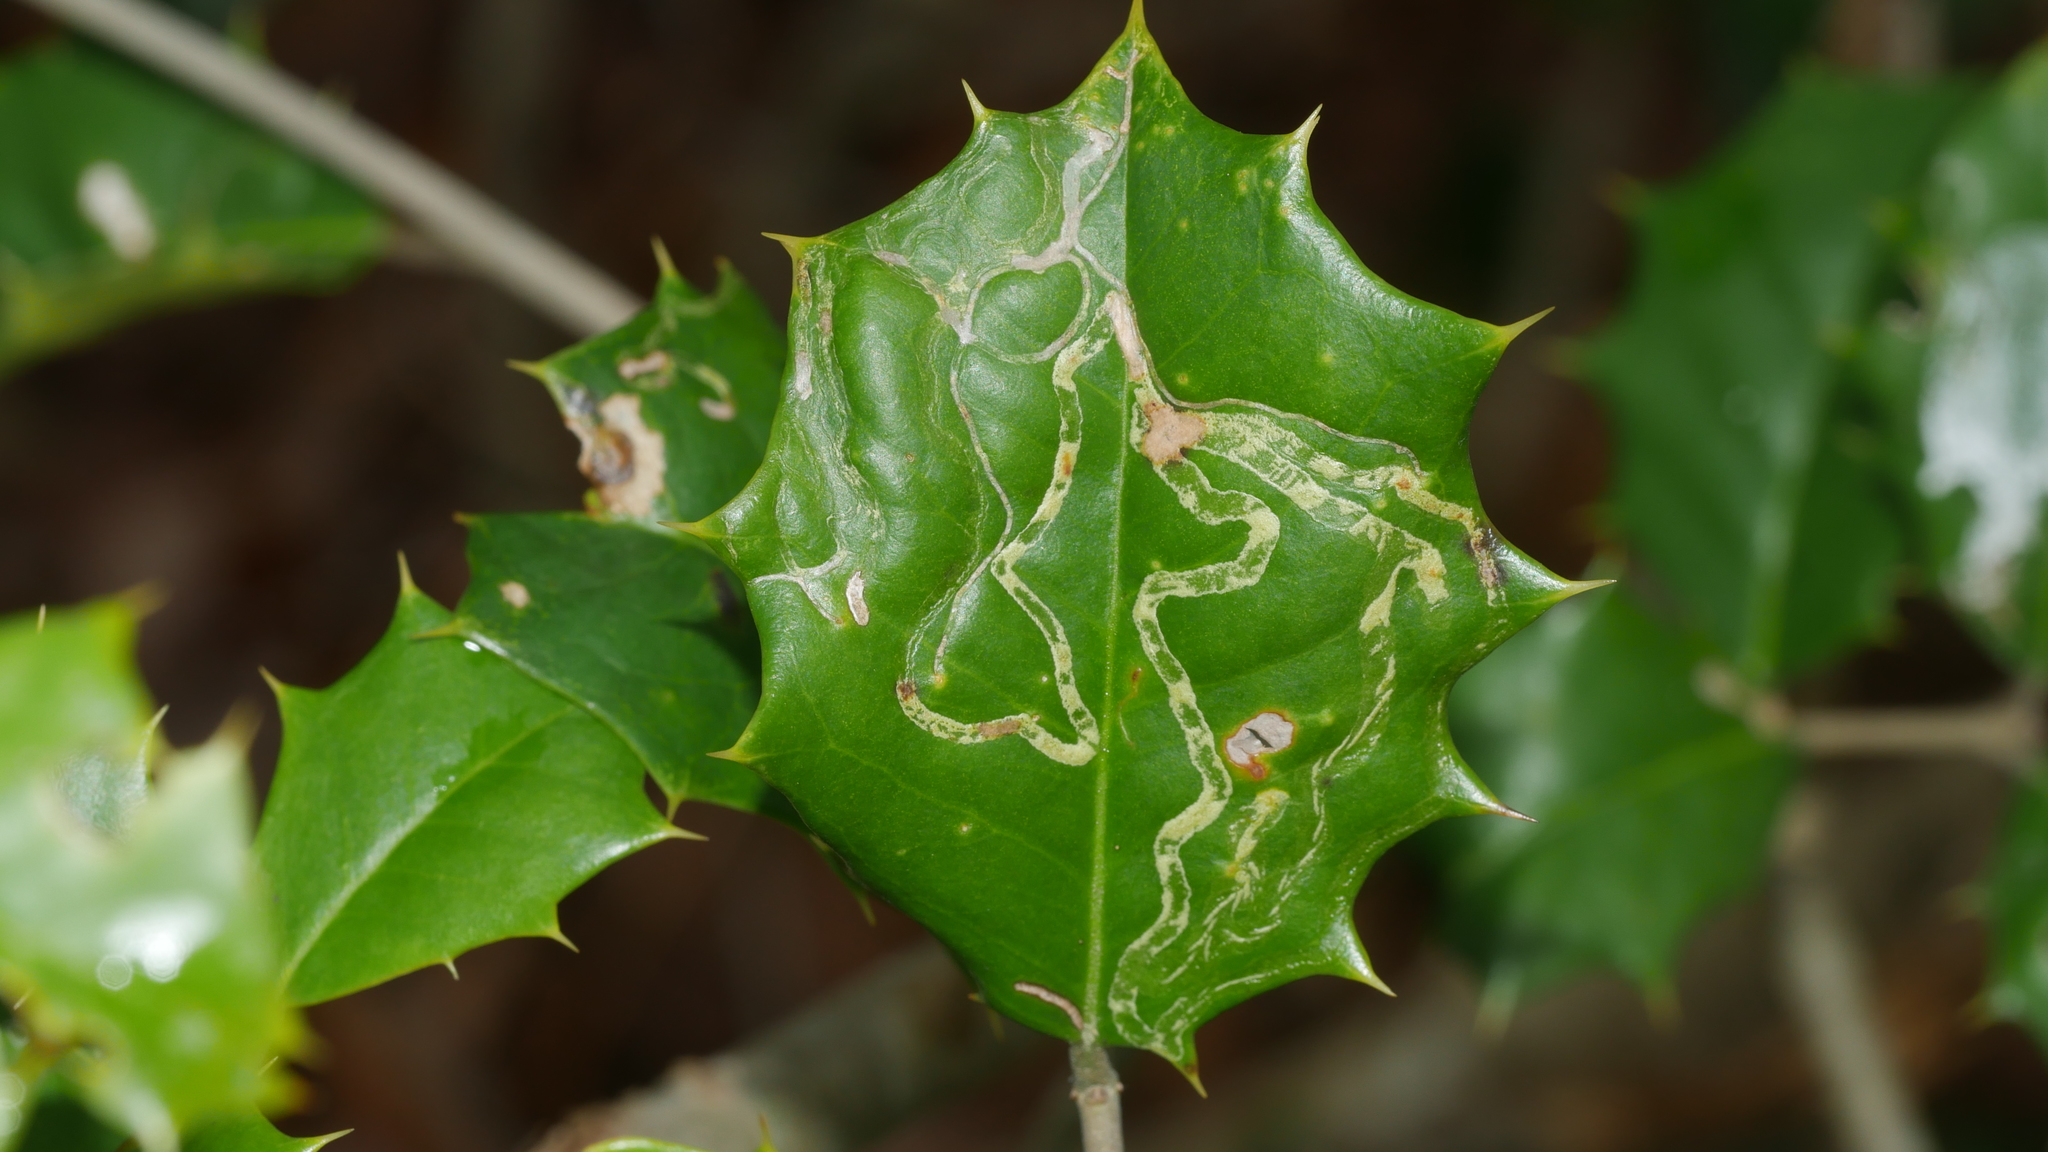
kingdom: Animalia
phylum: Arthropoda
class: Insecta
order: Diptera
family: Agromyzidae
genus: Phytomyza
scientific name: Phytomyza opacae
